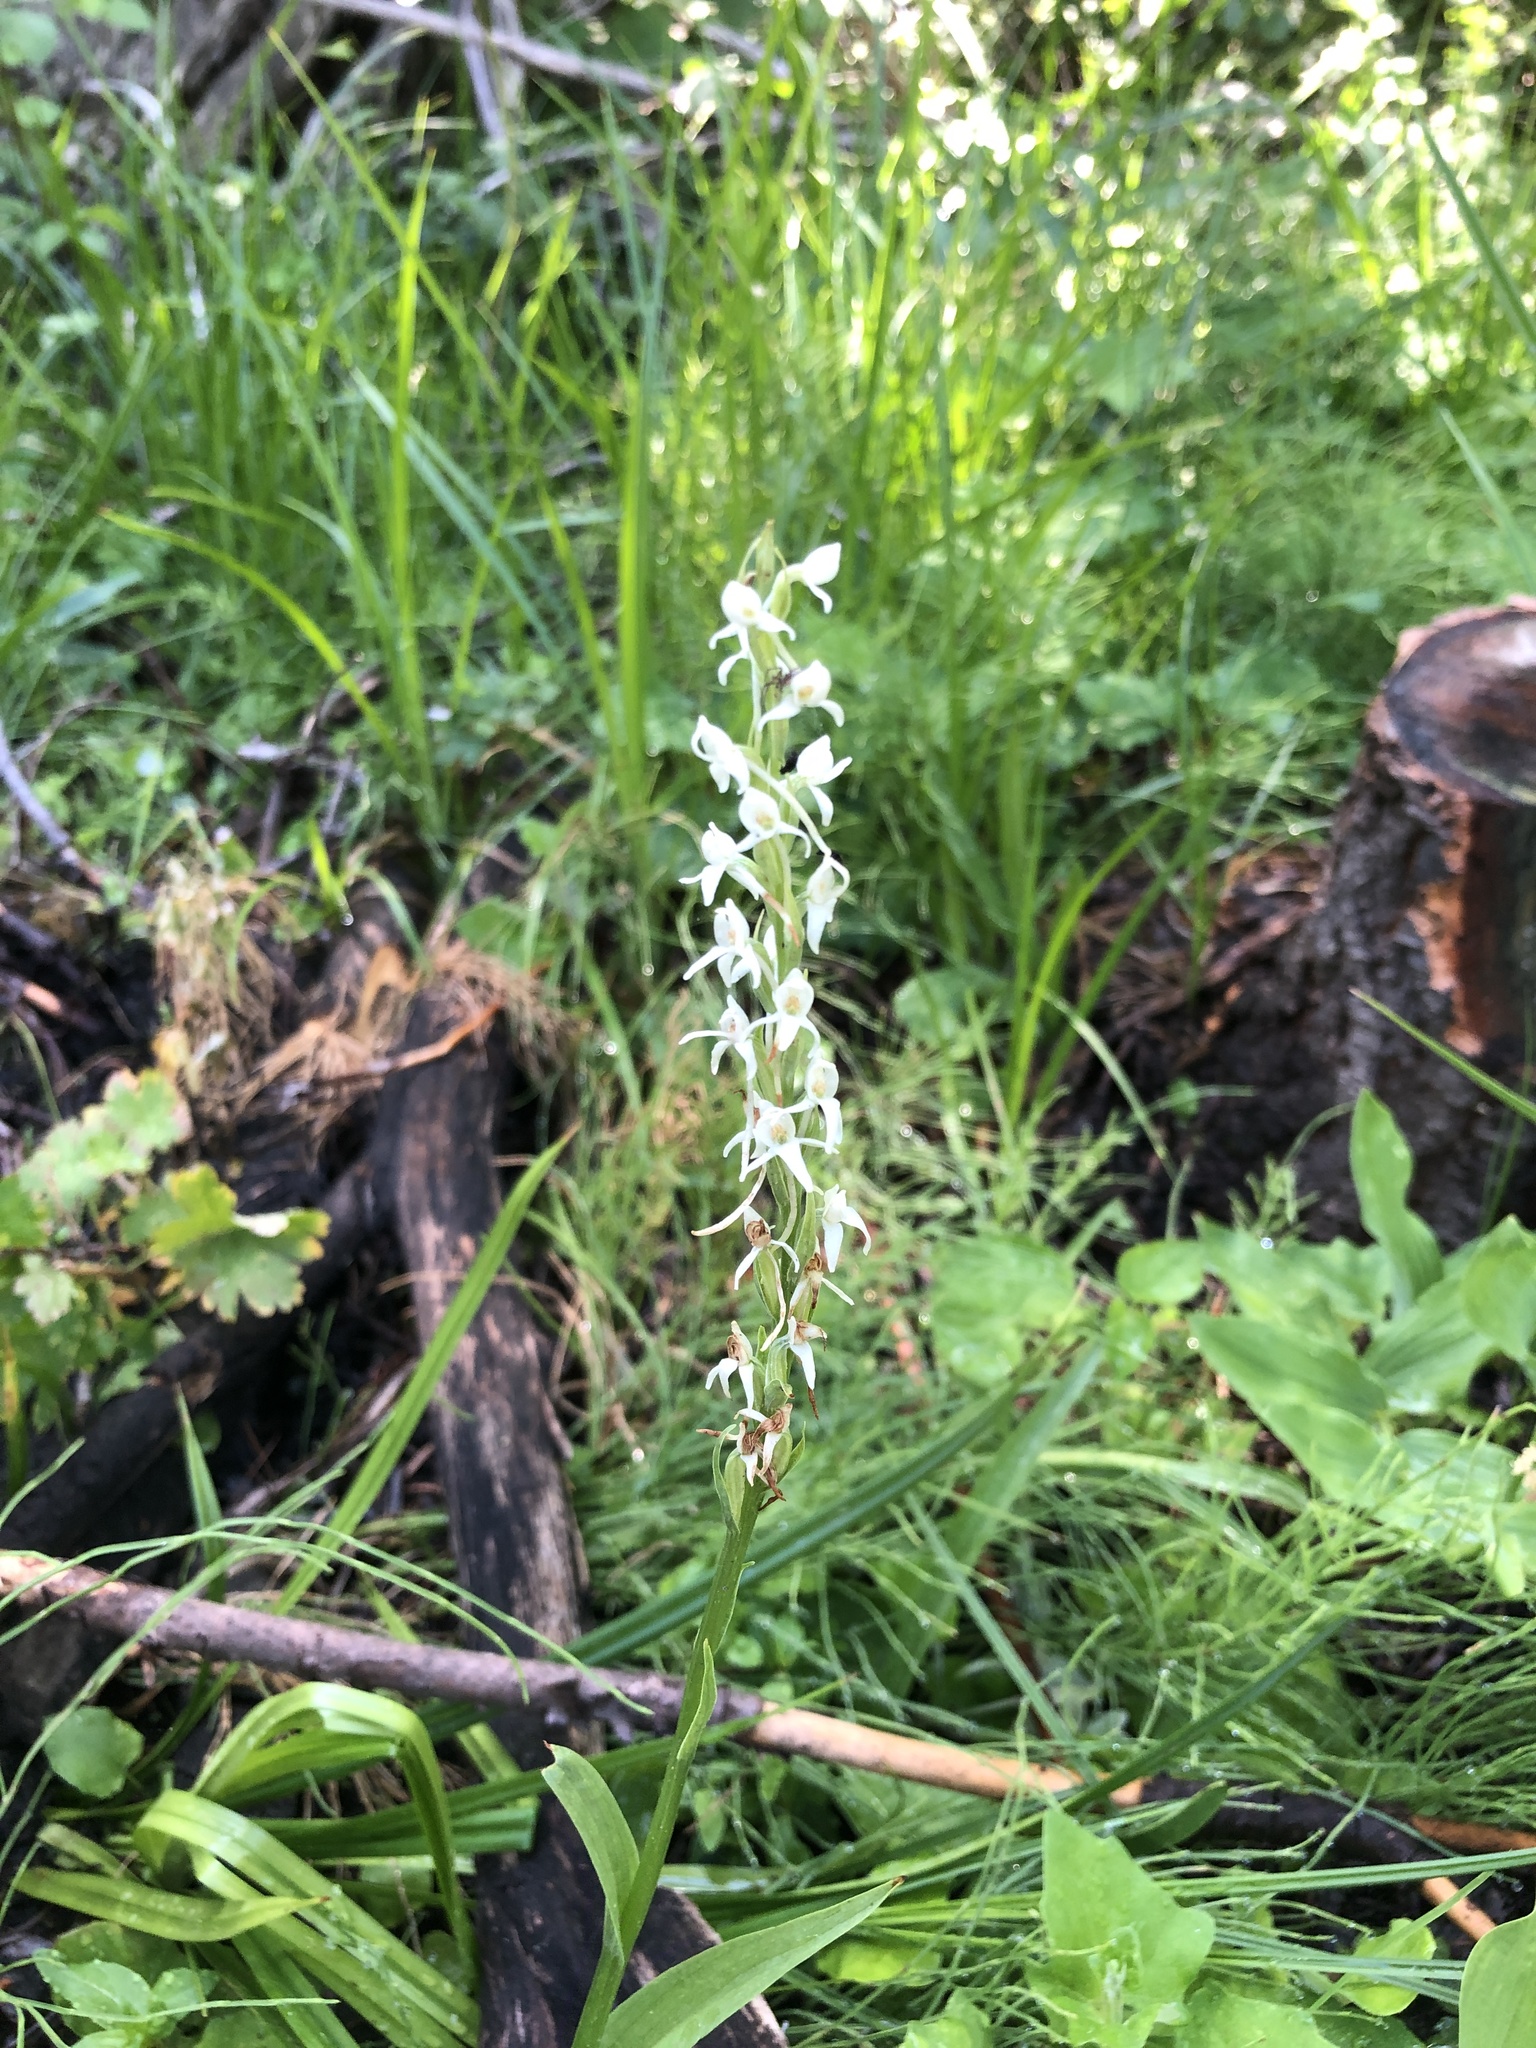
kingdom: Plantae
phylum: Tracheophyta
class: Liliopsida
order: Asparagales
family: Orchidaceae
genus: Platanthera
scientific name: Platanthera dilatata
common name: Bog candles
